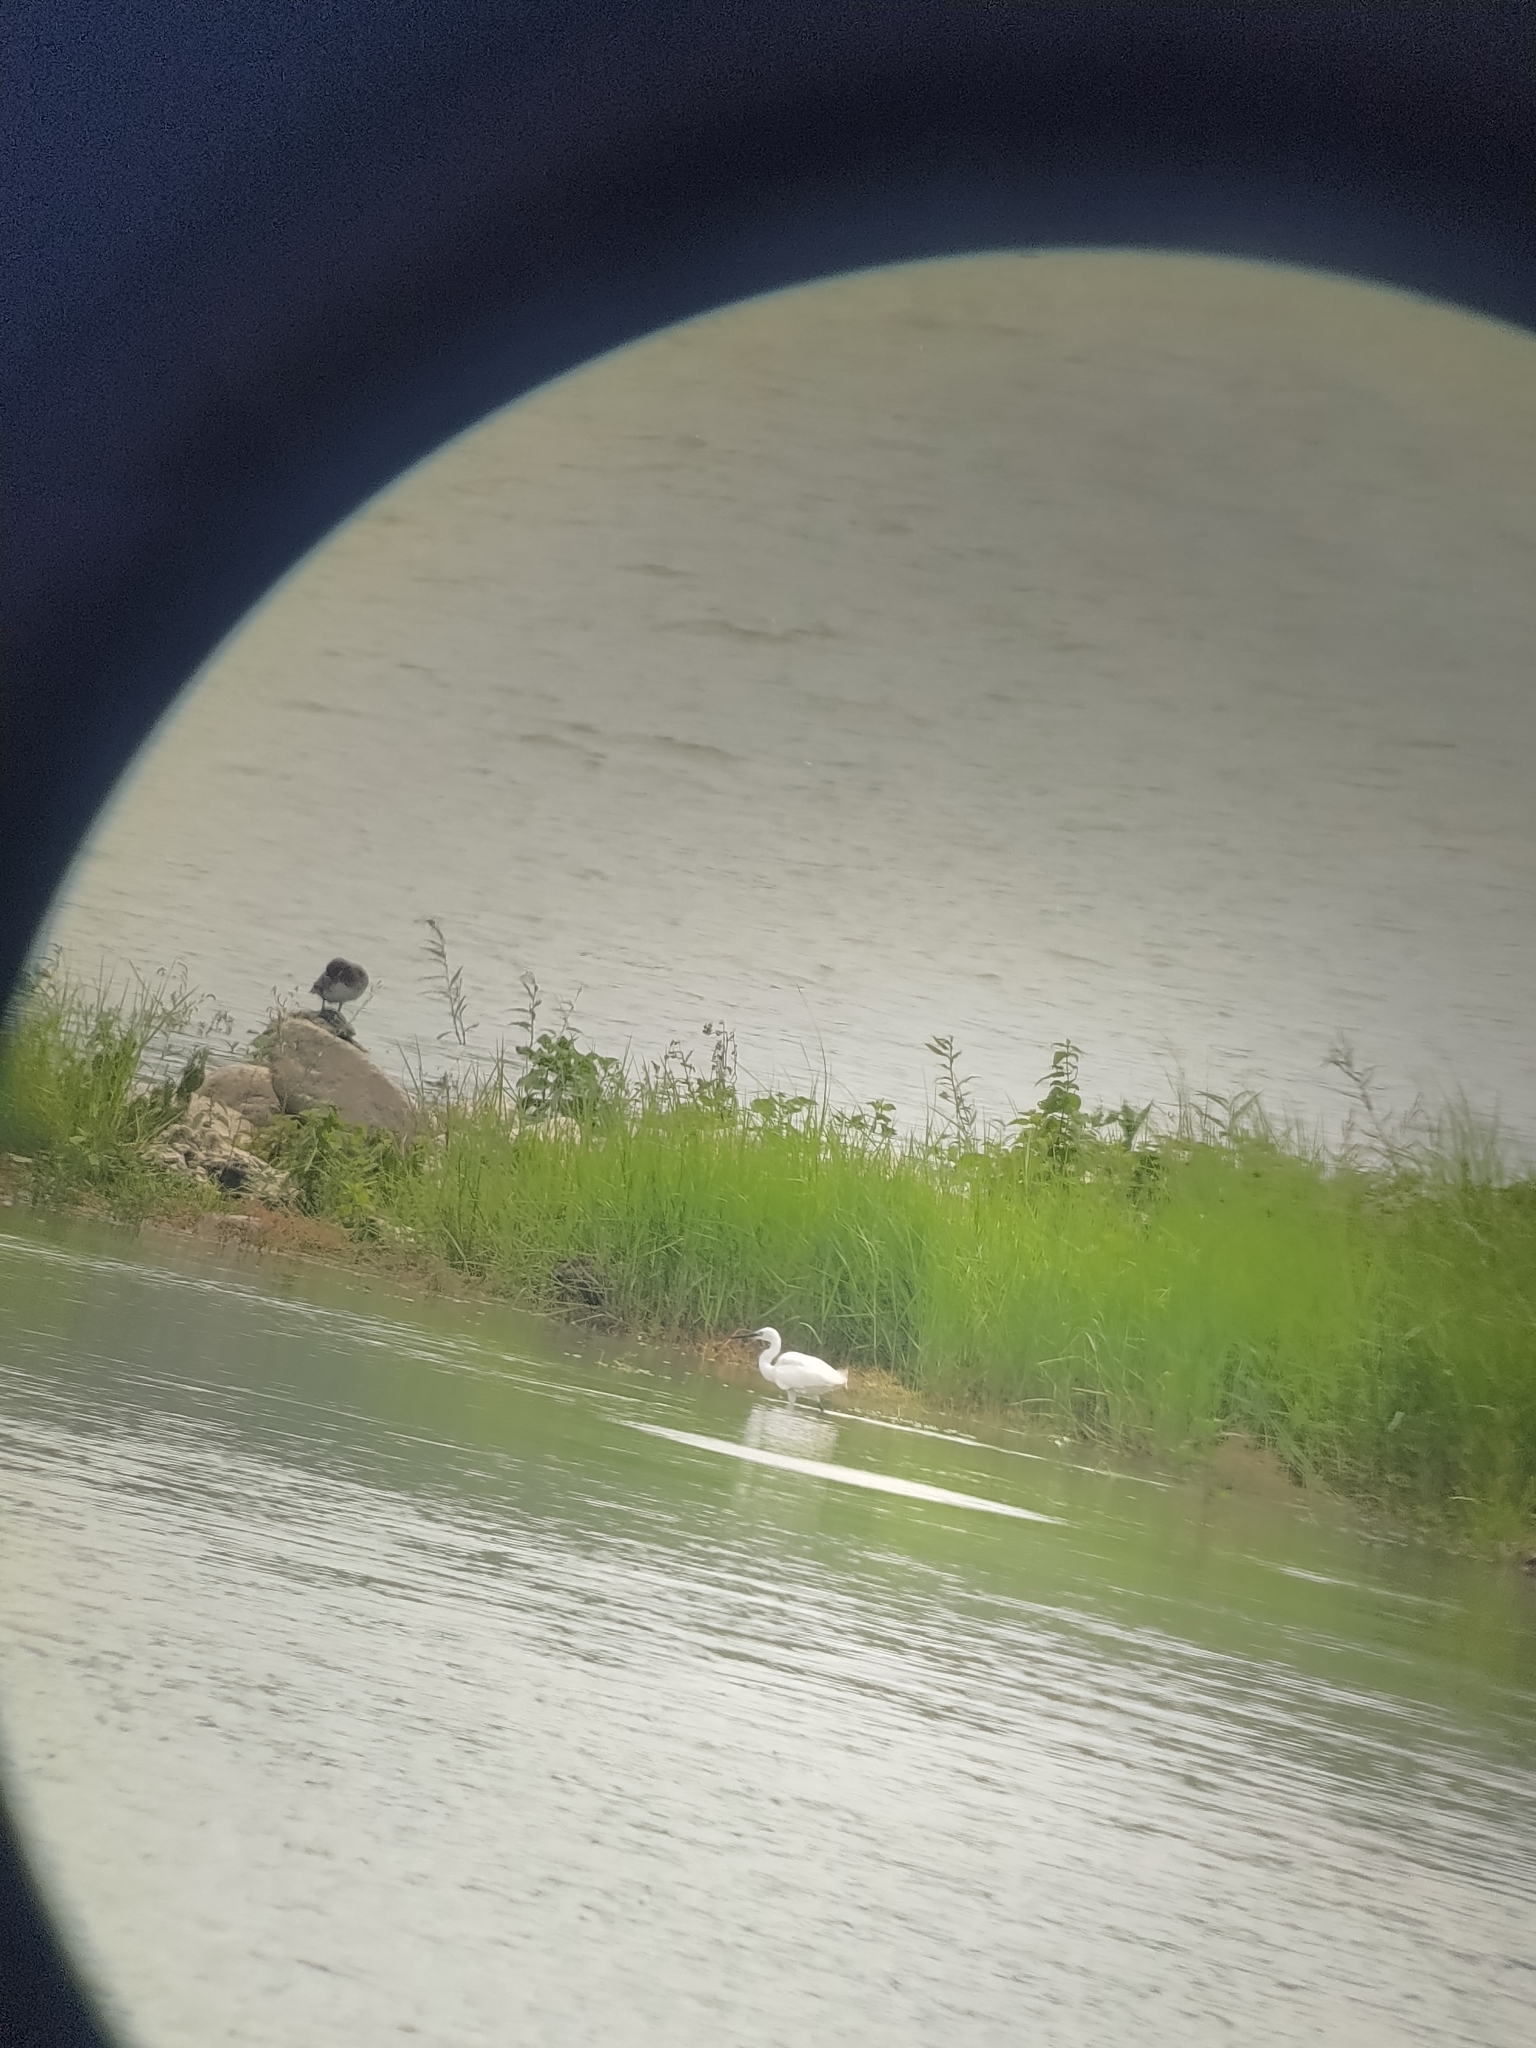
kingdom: Animalia
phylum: Chordata
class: Aves
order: Pelecaniformes
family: Ardeidae
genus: Egretta
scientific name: Egretta garzetta
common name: Little egret
